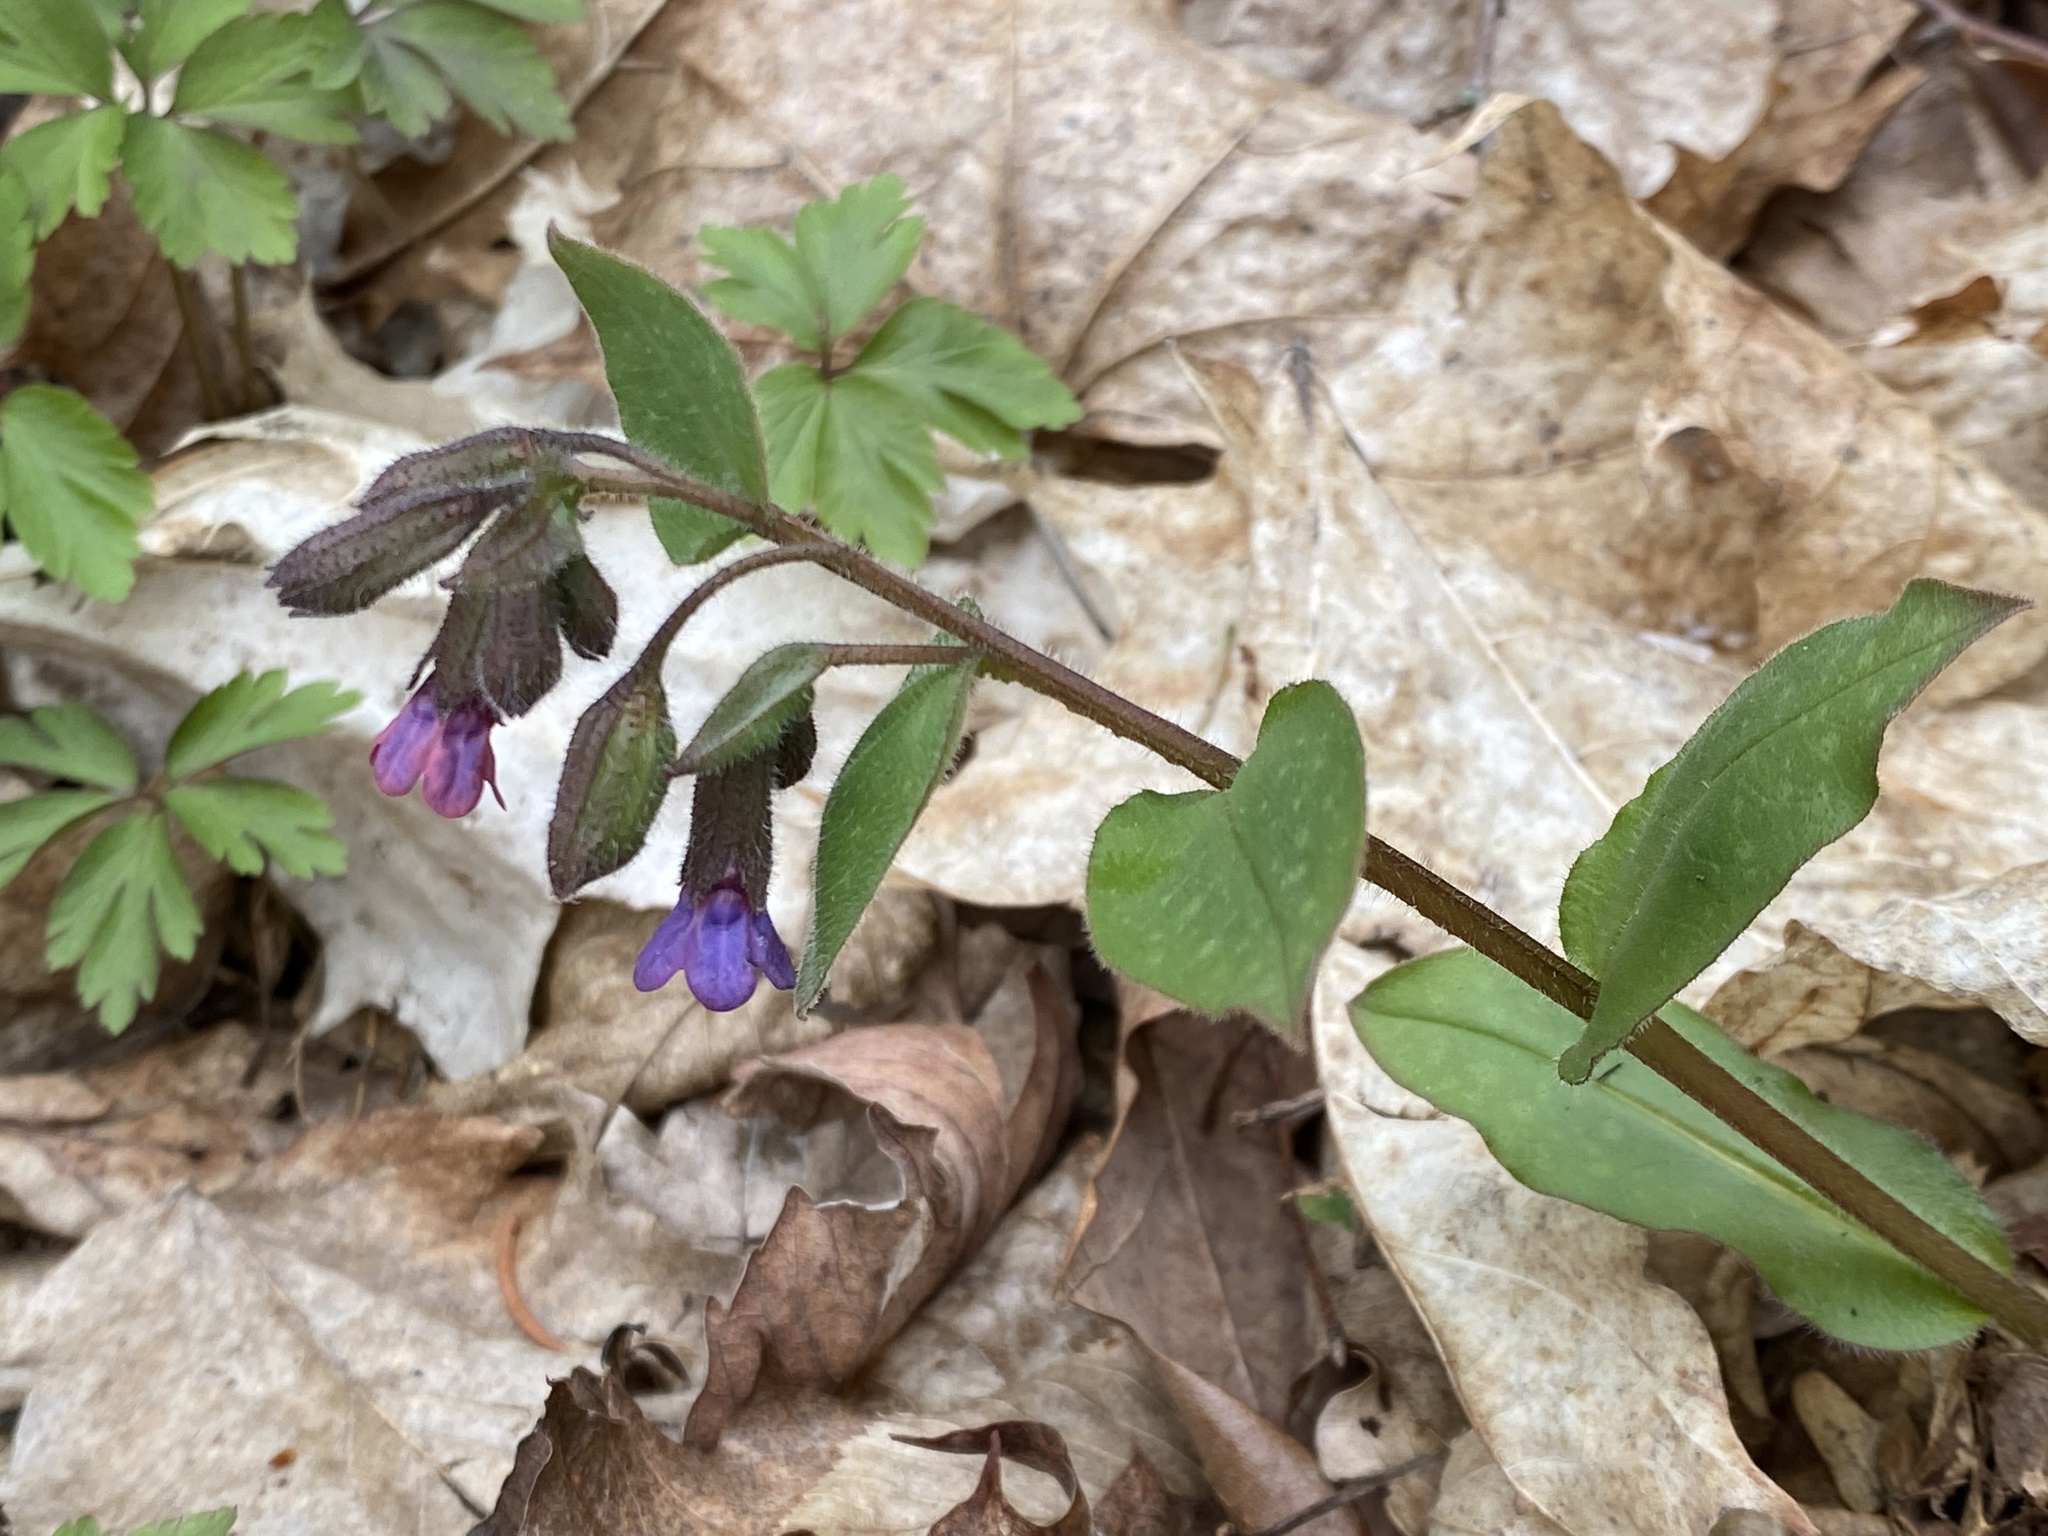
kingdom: Plantae
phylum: Tracheophyta
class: Magnoliopsida
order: Boraginales
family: Boraginaceae
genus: Pulmonaria
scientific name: Pulmonaria officinalis
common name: Lungwort
